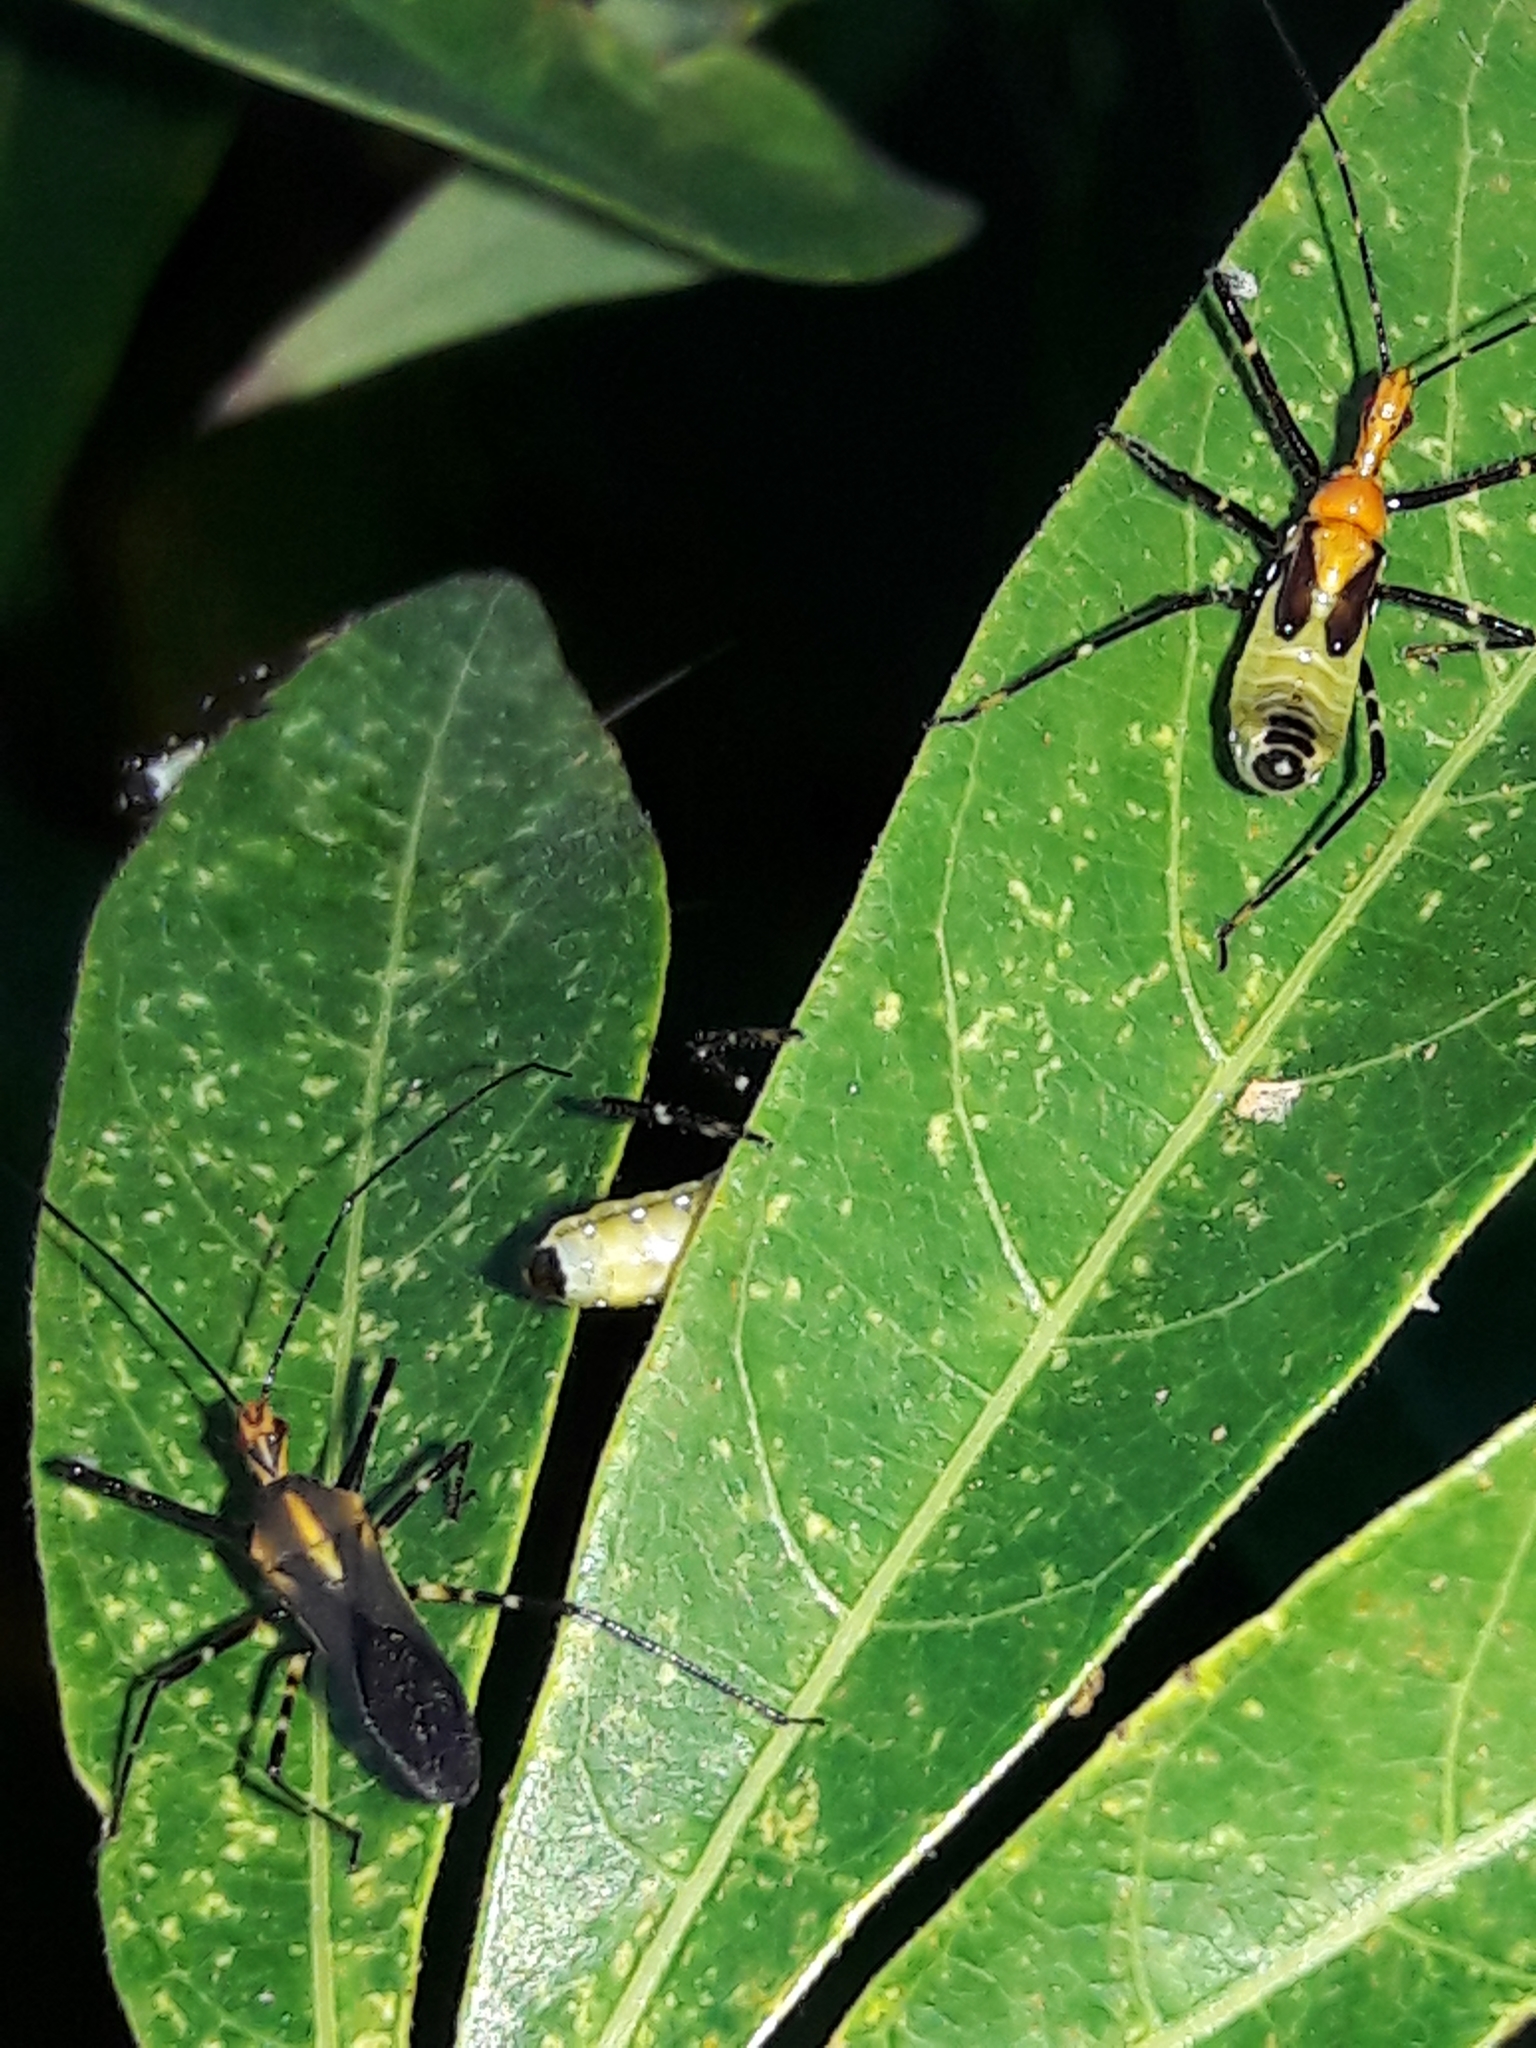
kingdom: Animalia
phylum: Arthropoda
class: Insecta
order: Hemiptera
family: Reduviidae
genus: Zelus
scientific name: Zelus laticornis
